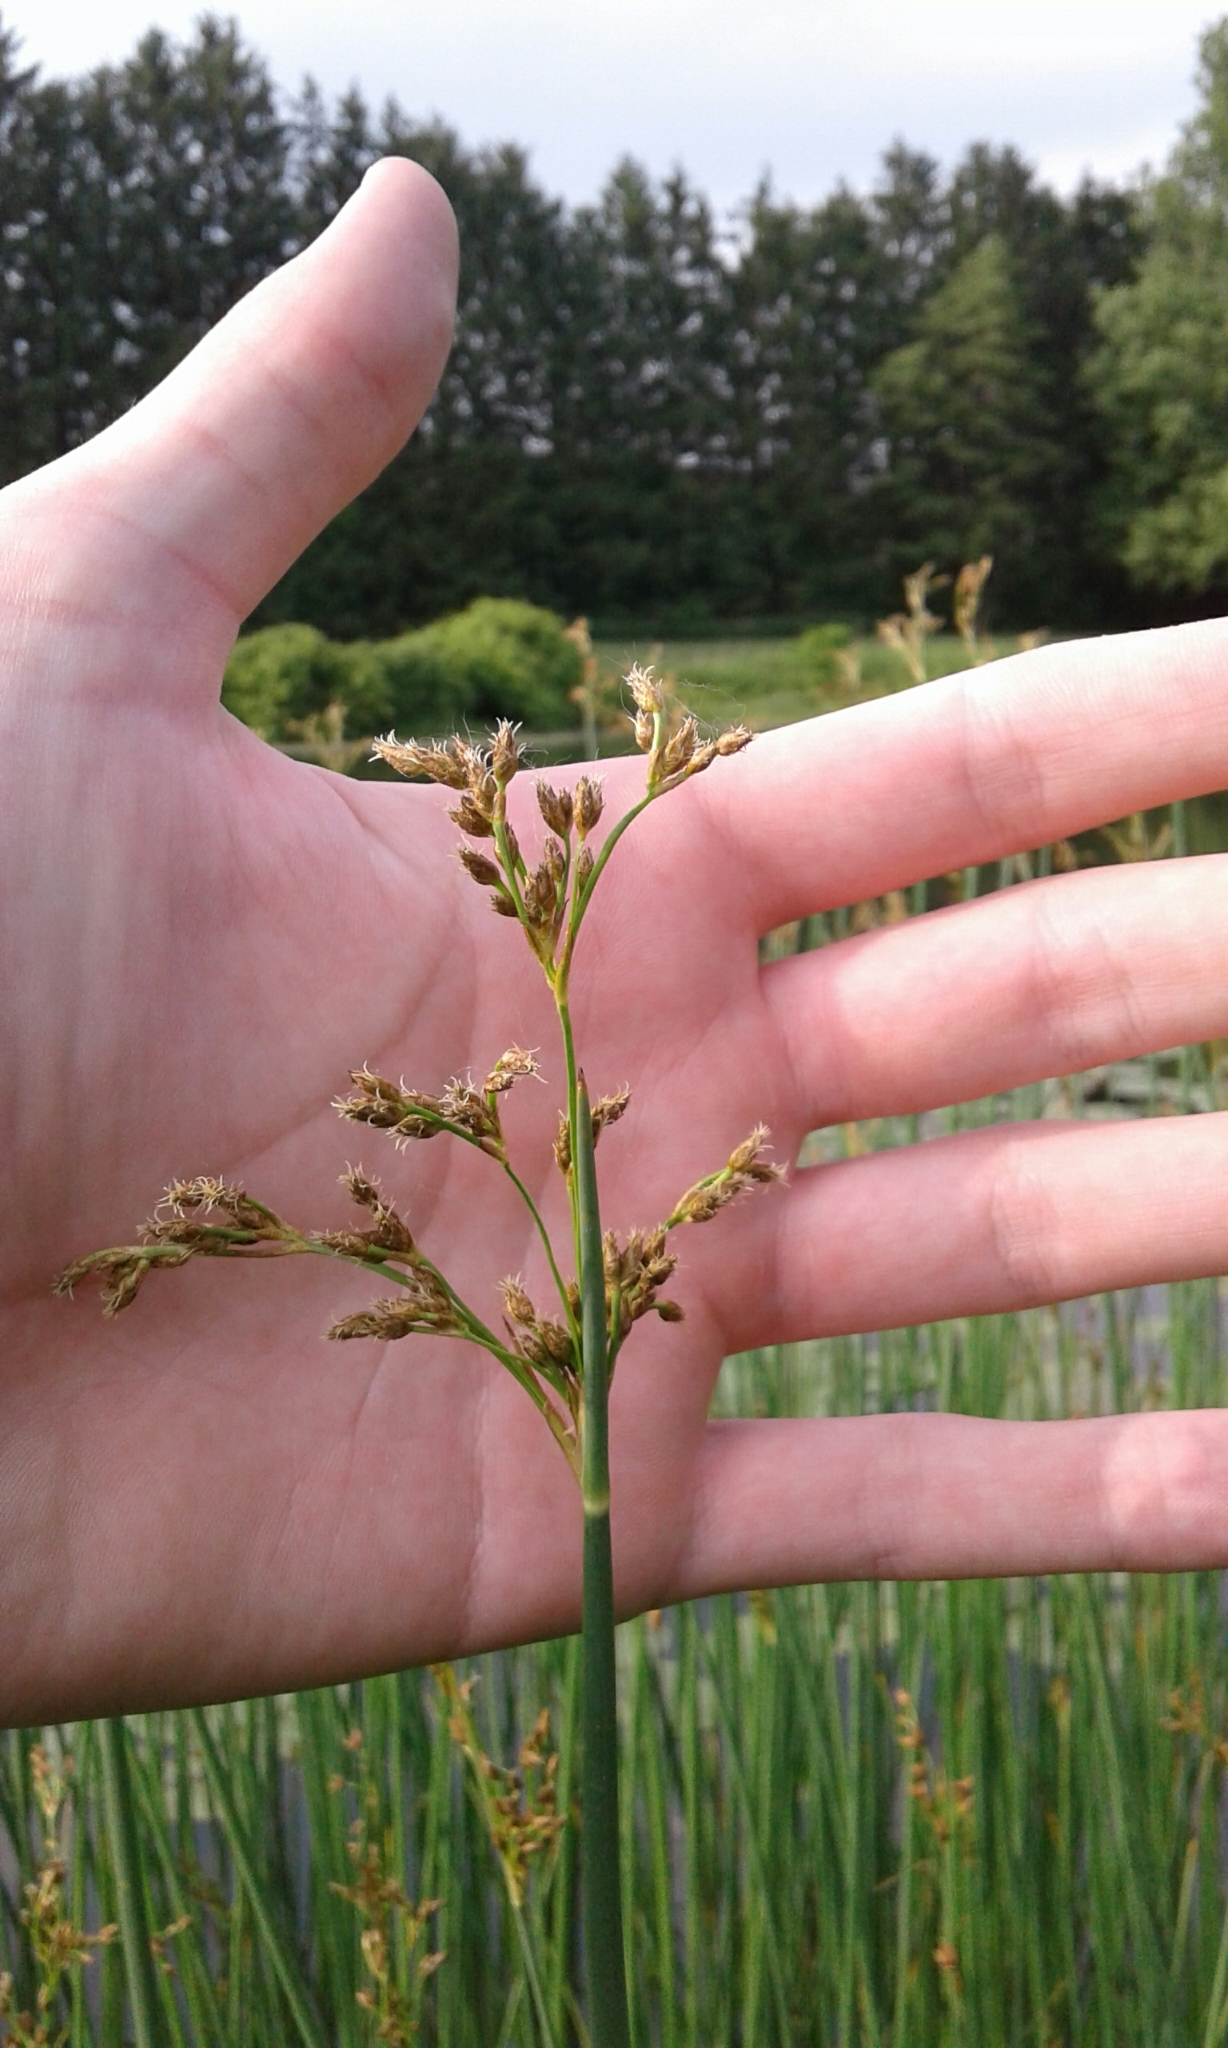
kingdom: Plantae
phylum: Tracheophyta
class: Liliopsida
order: Poales
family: Cyperaceae
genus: Schoenoplectus
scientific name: Schoenoplectus tabernaemontani
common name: Grey club-rush
